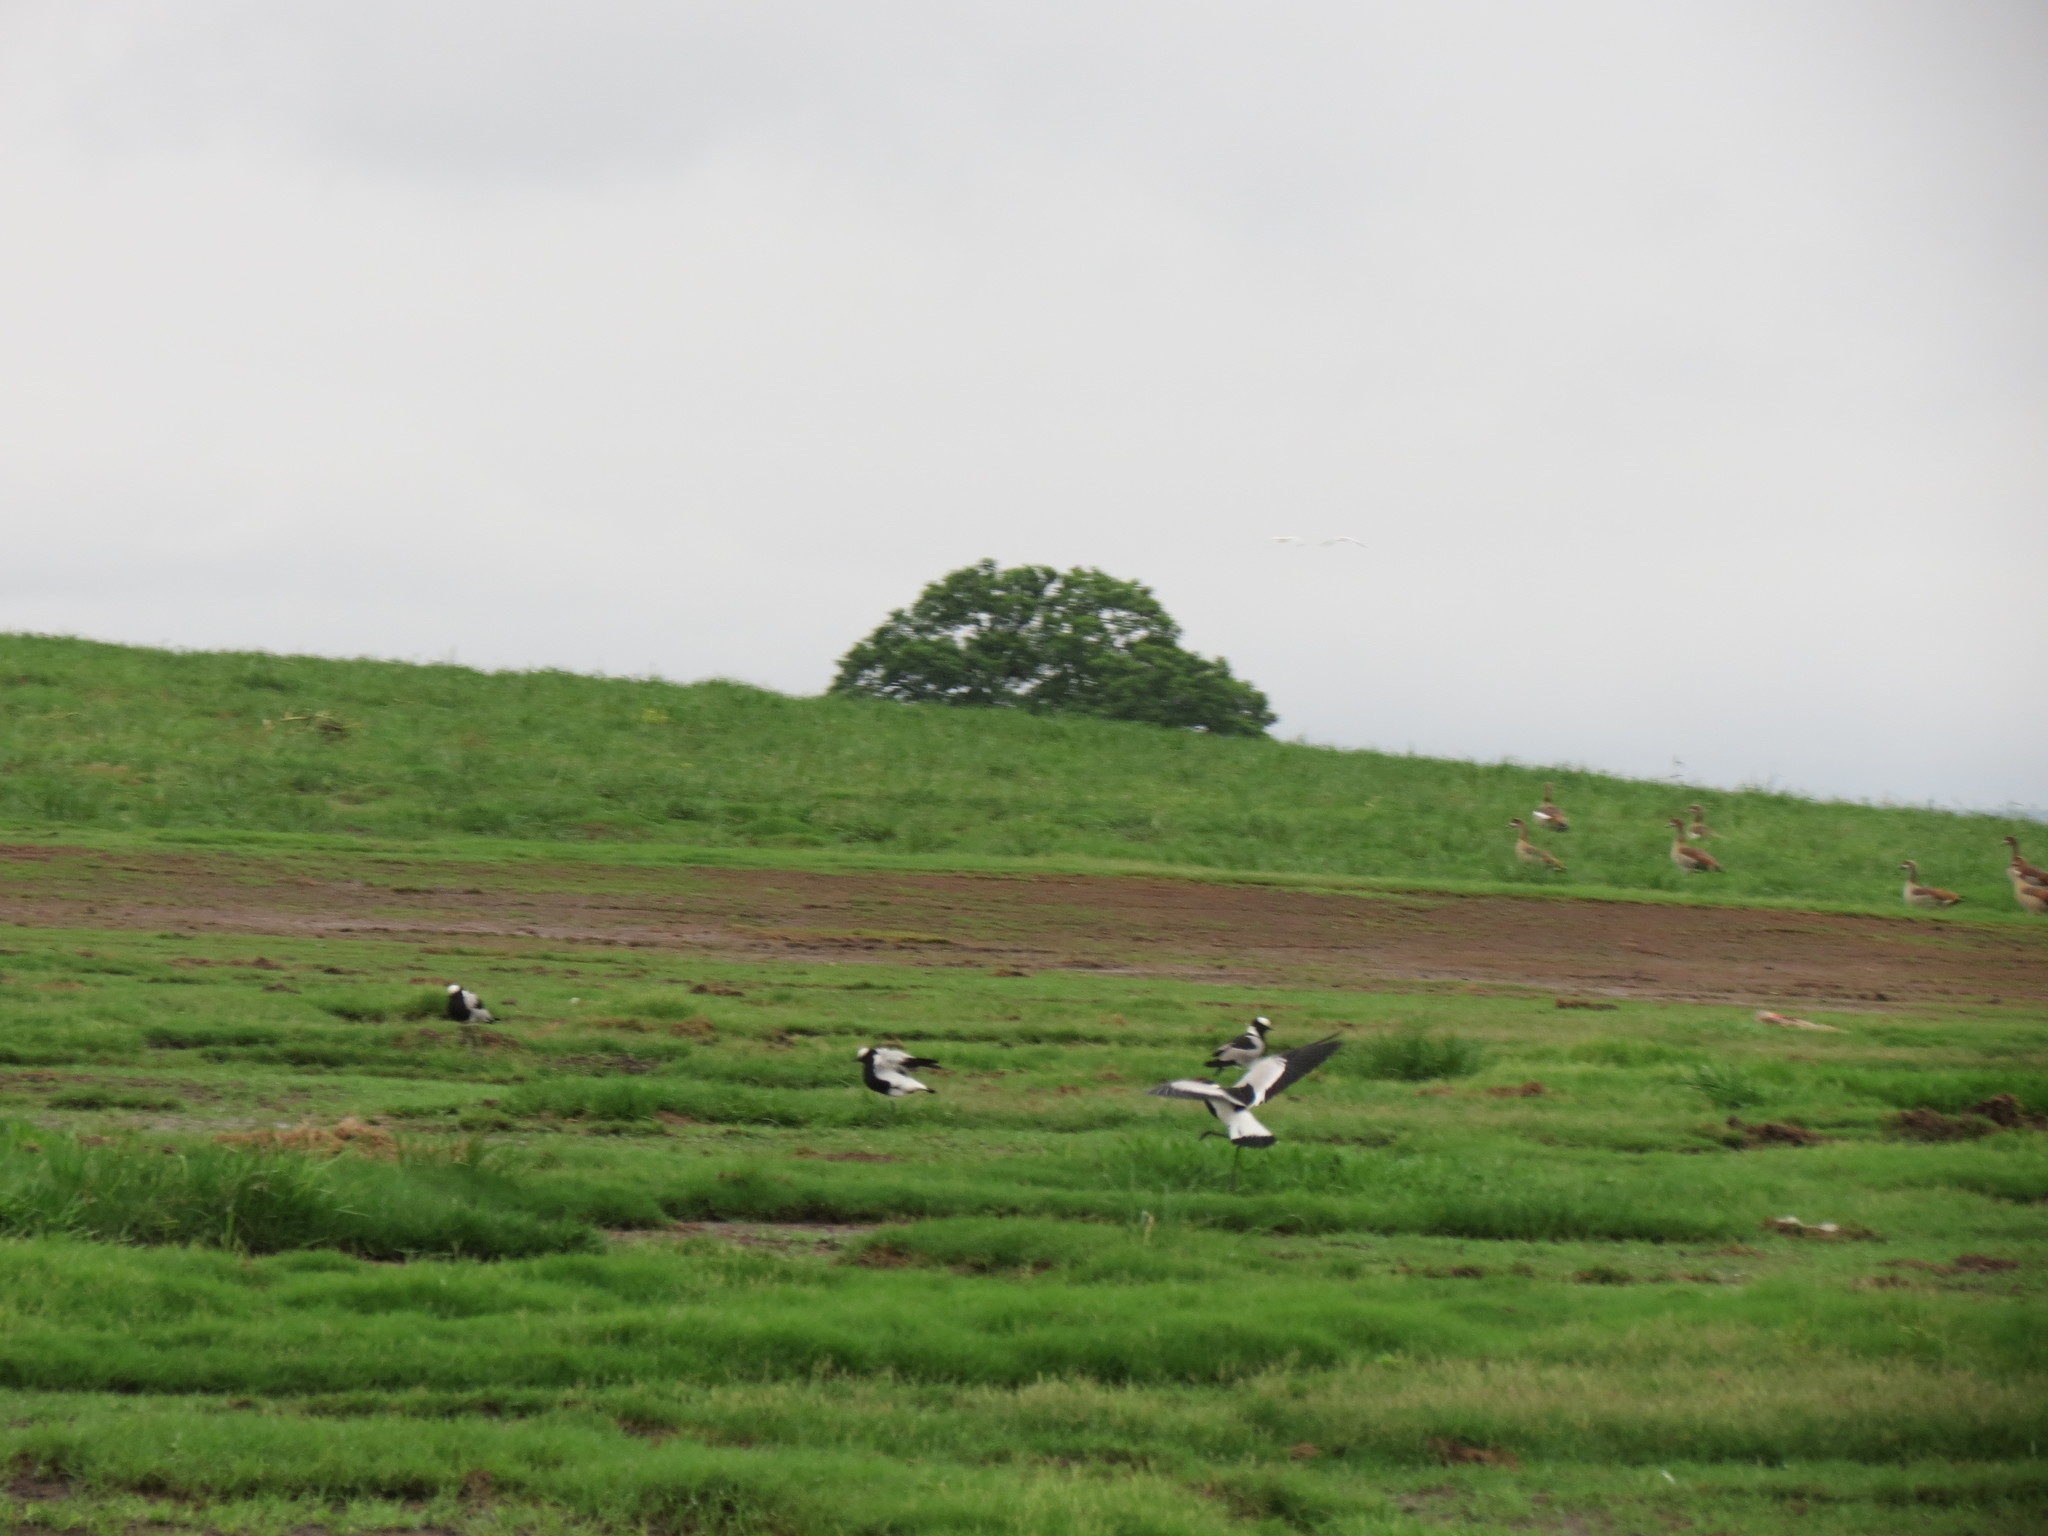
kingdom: Animalia
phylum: Chordata
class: Aves
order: Charadriiformes
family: Charadriidae
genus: Vanellus
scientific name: Vanellus armatus
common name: Blacksmith lapwing
